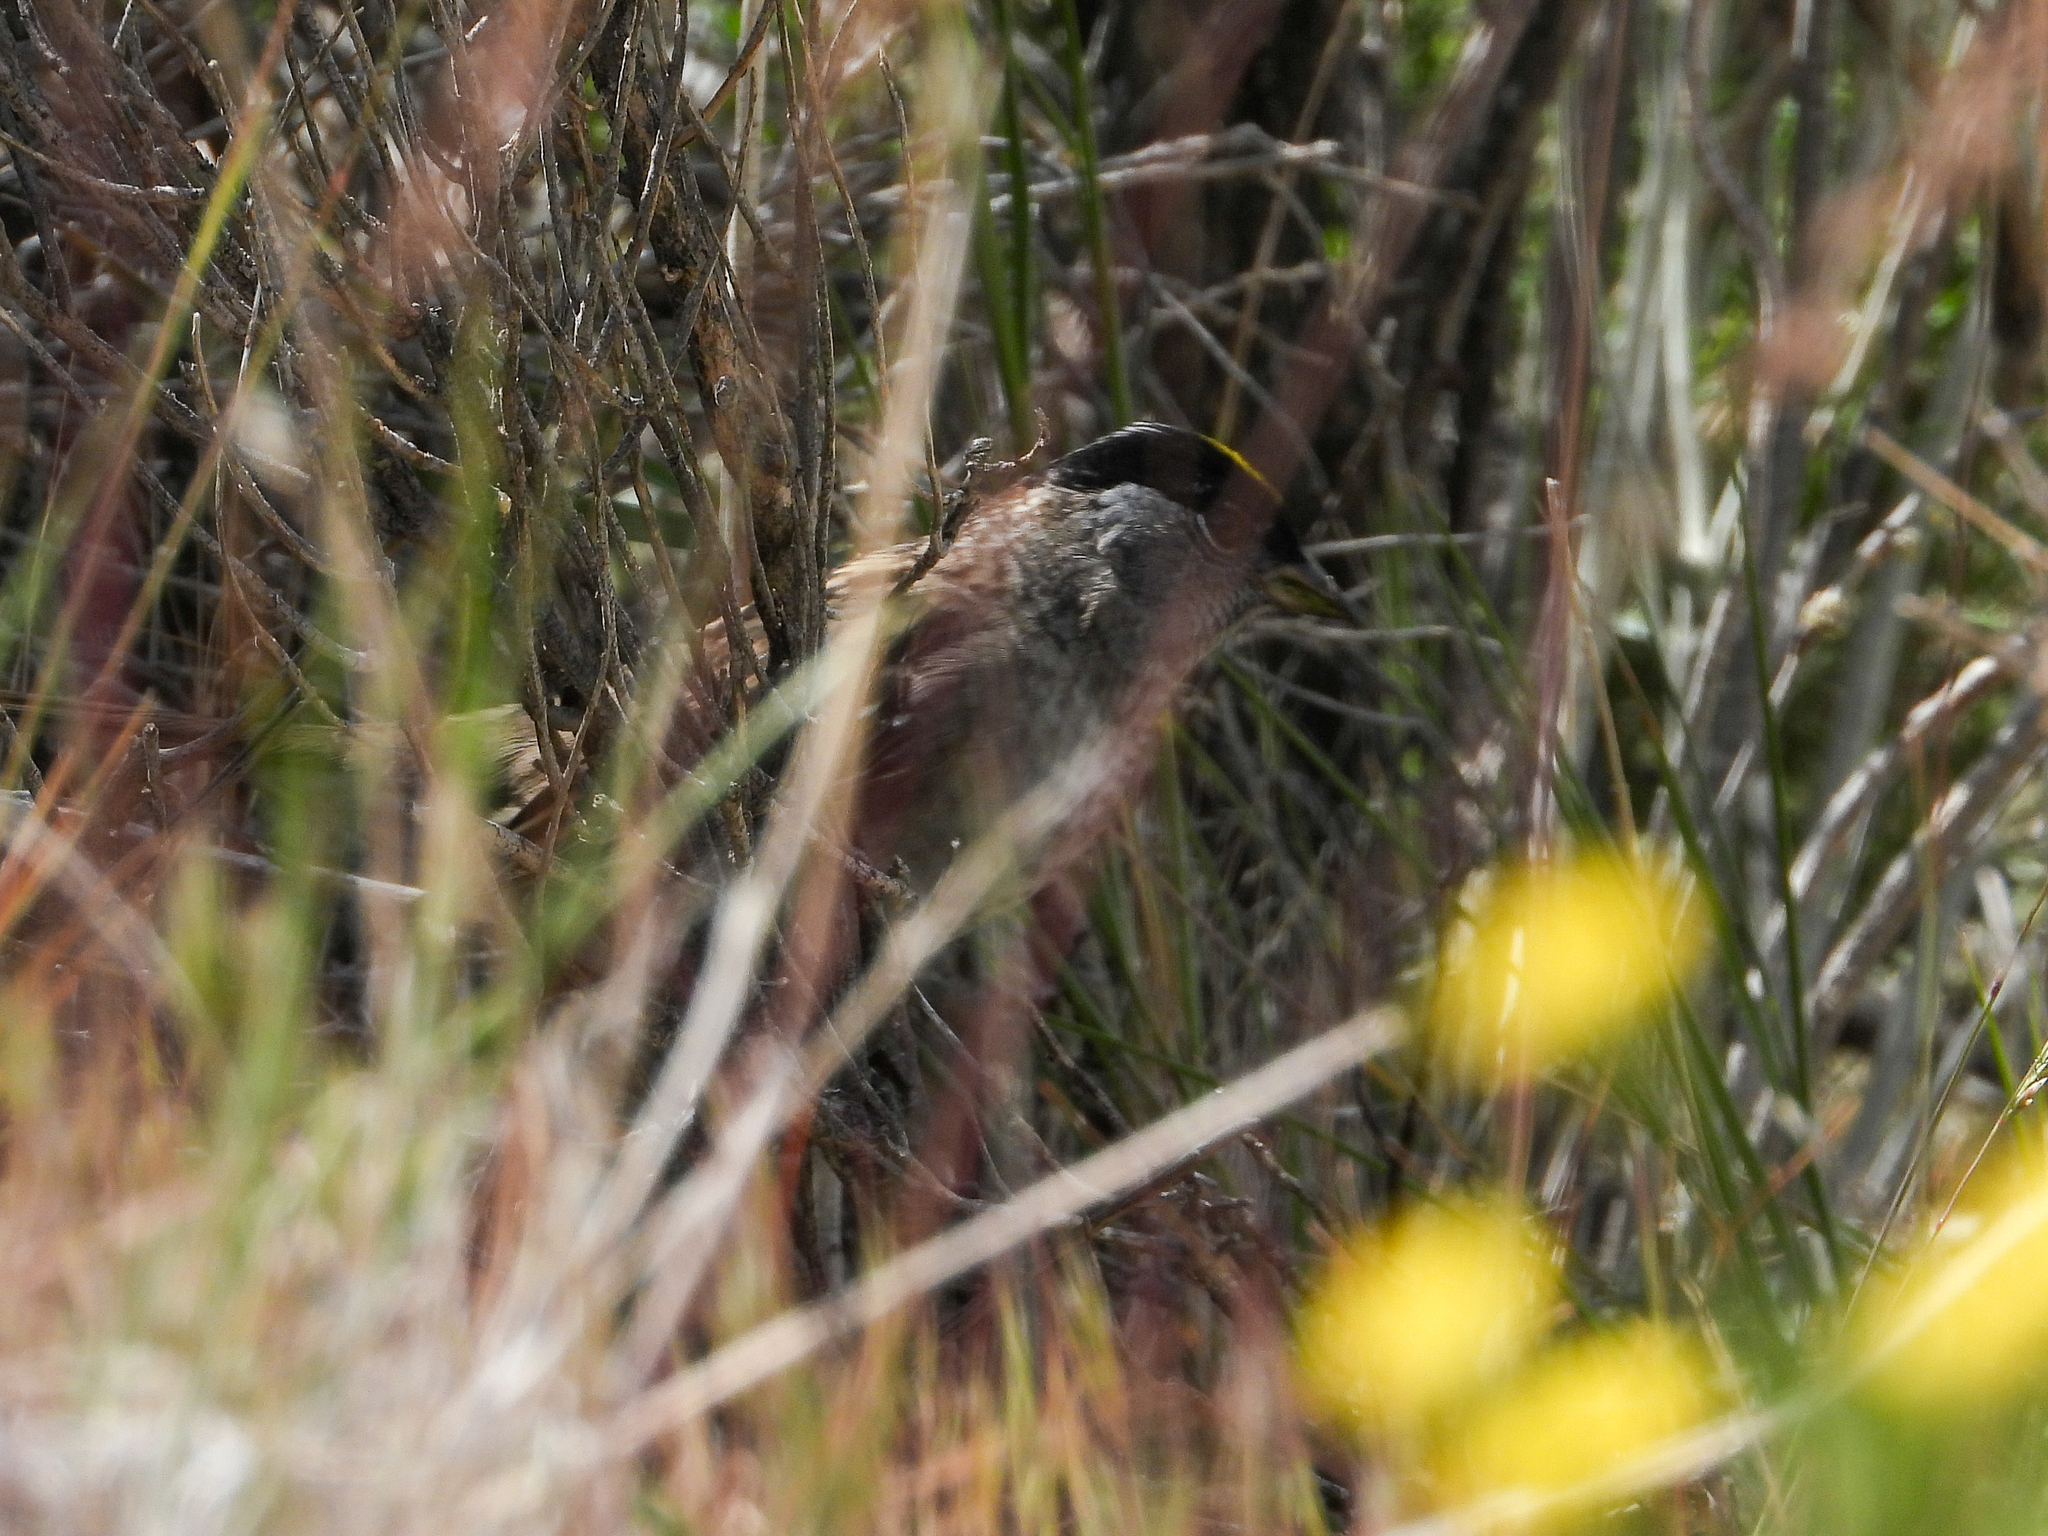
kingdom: Animalia
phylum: Chordata
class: Aves
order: Passeriformes
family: Passerellidae
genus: Zonotrichia
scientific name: Zonotrichia atricapilla
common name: Golden-crowned sparrow
